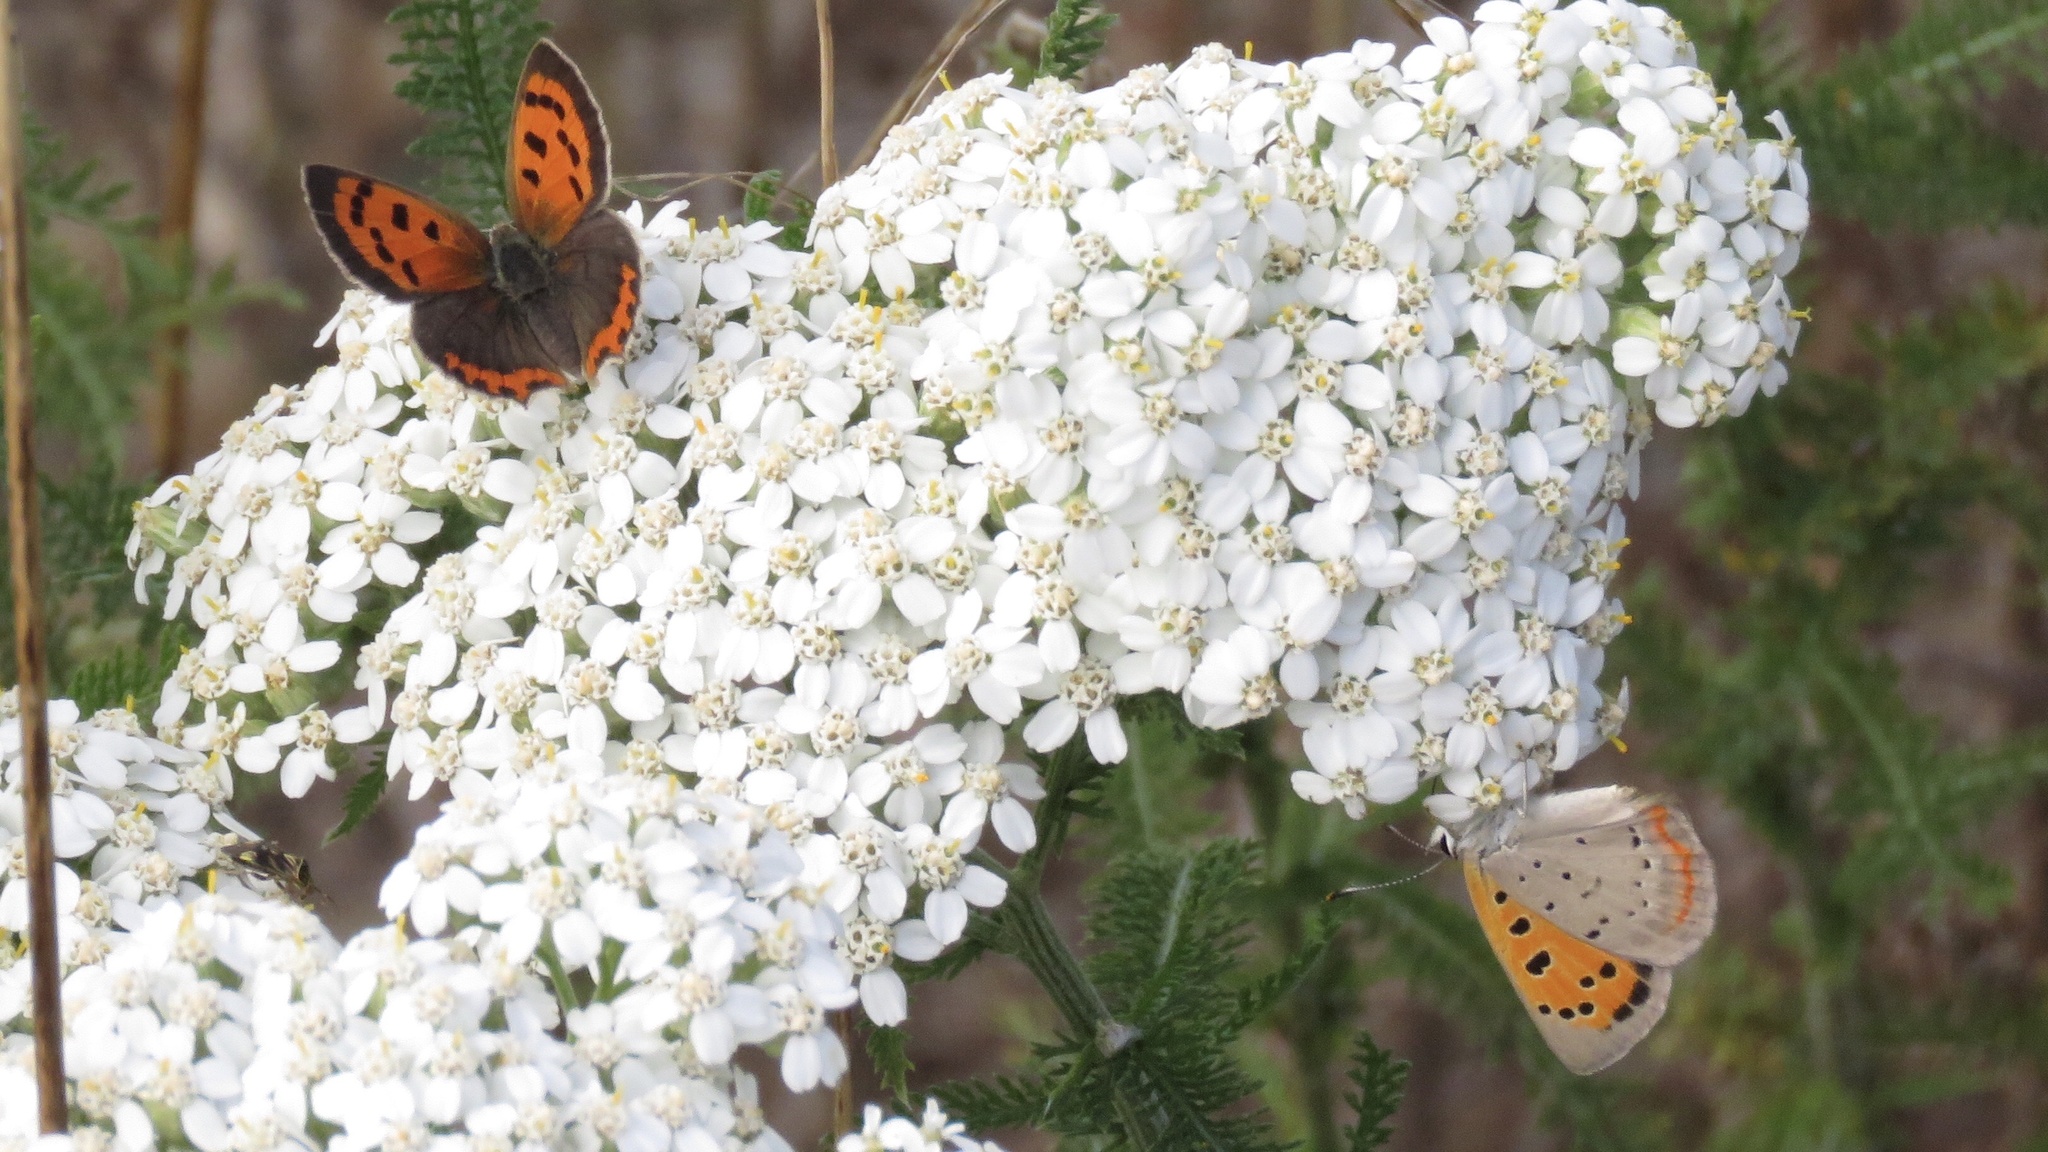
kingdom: Animalia
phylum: Arthropoda
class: Insecta
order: Lepidoptera
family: Lycaenidae
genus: Lycaena
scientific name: Lycaena hypophlaeas
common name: American copper
